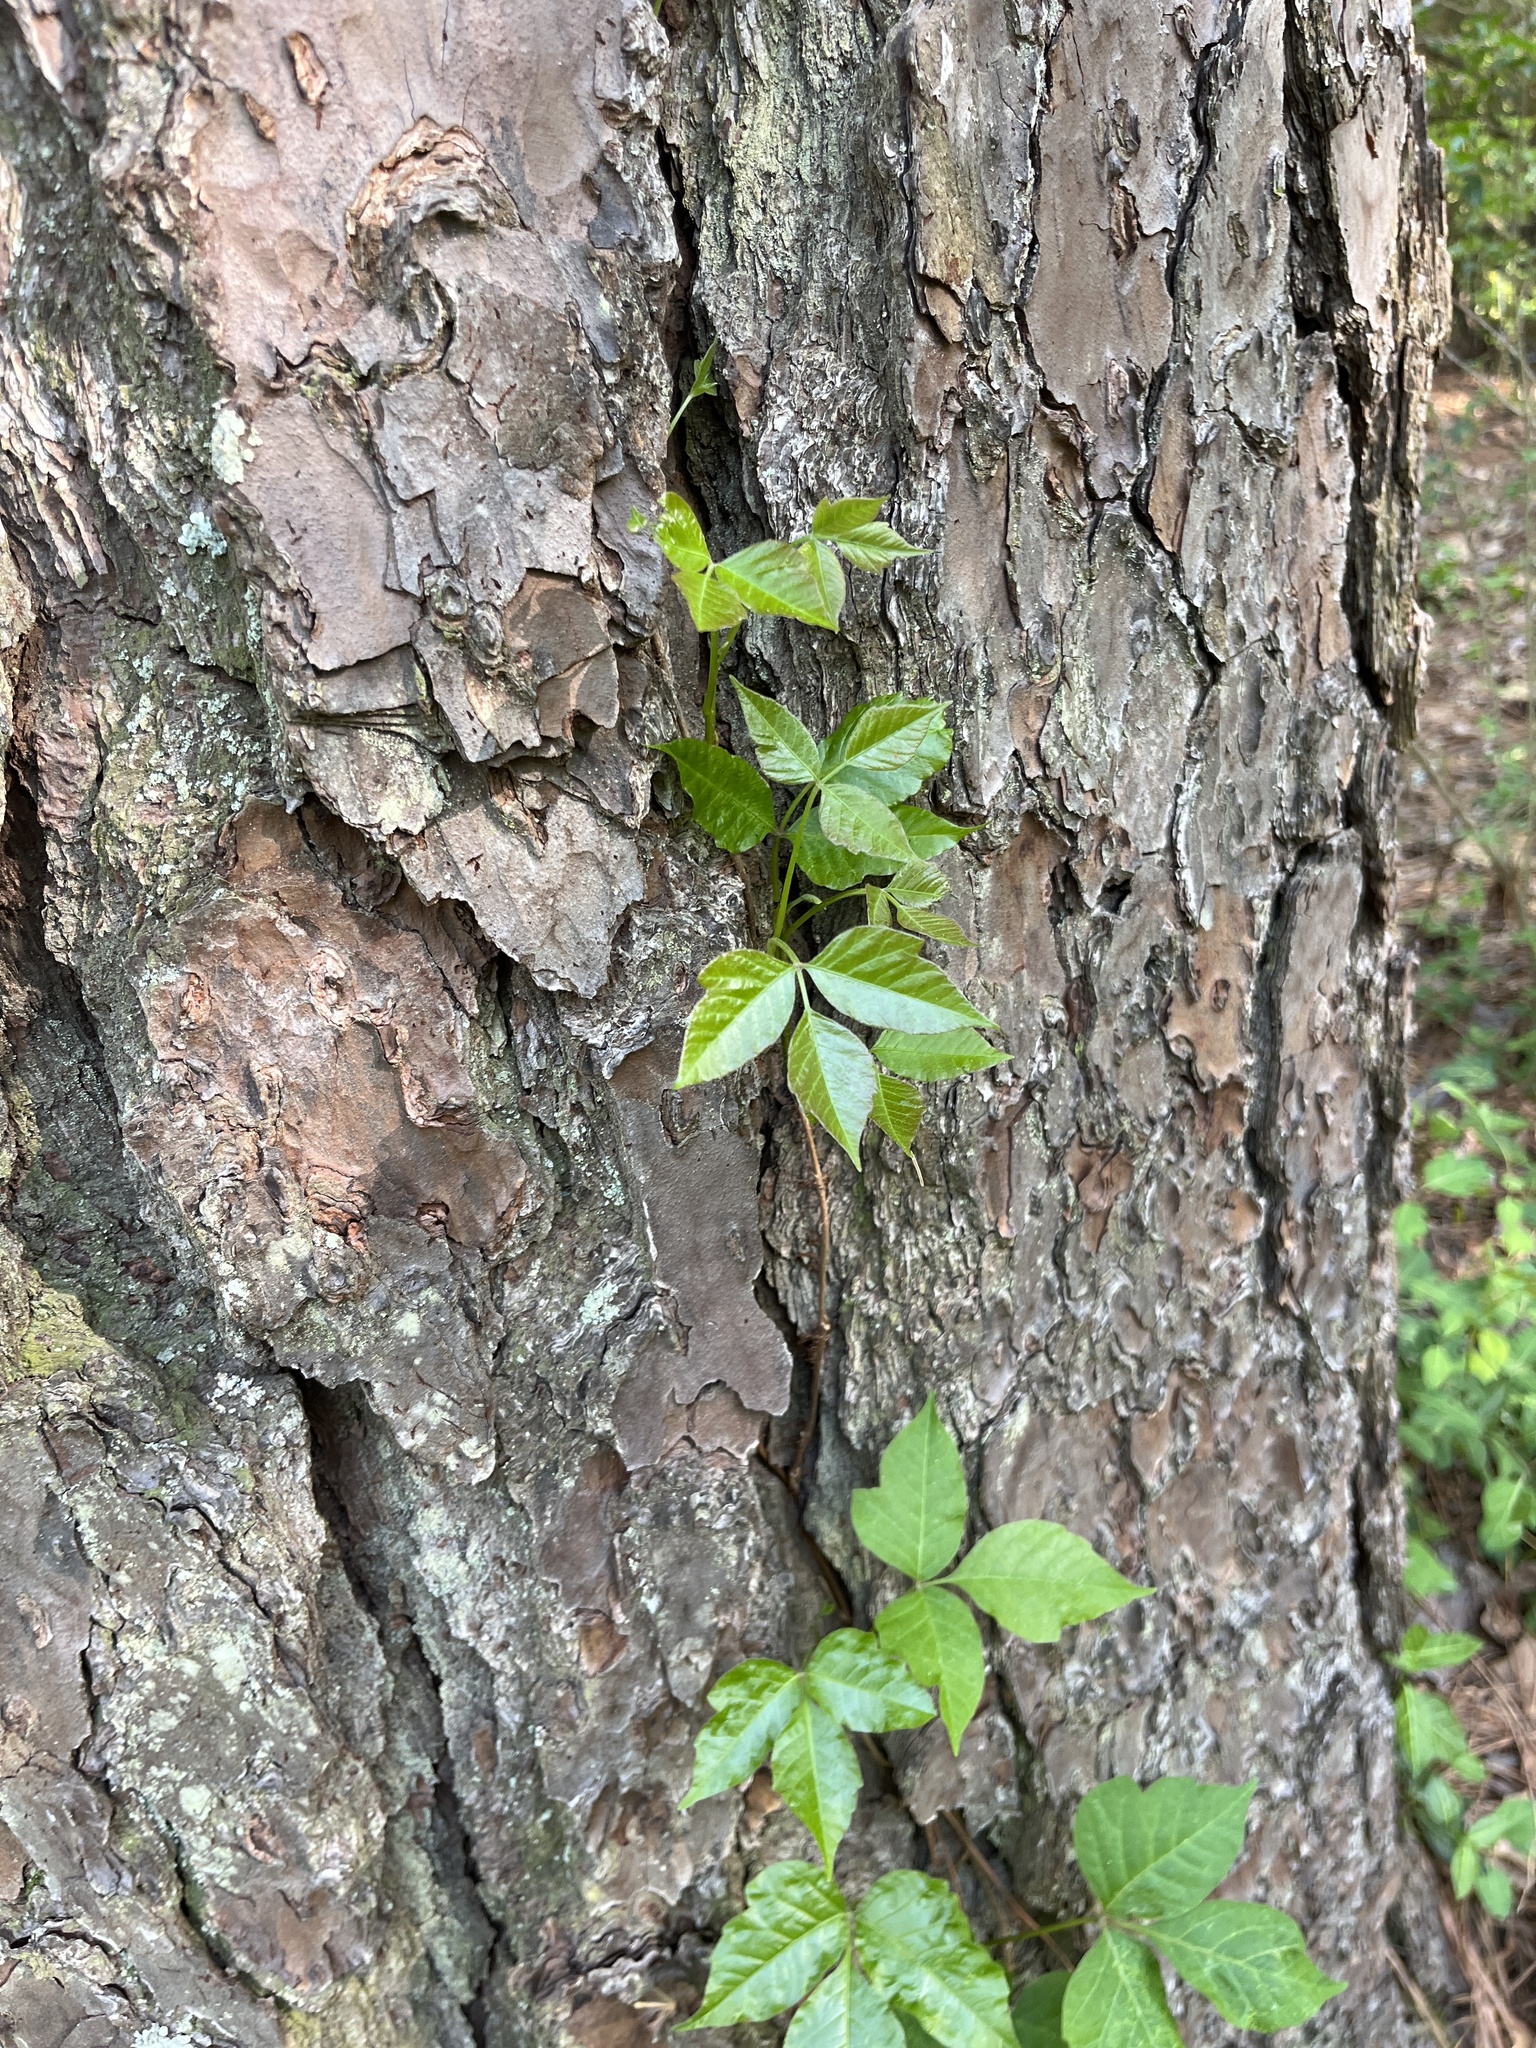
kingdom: Plantae
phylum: Tracheophyta
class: Magnoliopsida
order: Sapindales
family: Anacardiaceae
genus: Toxicodendron
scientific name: Toxicodendron radicans
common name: Poison ivy
